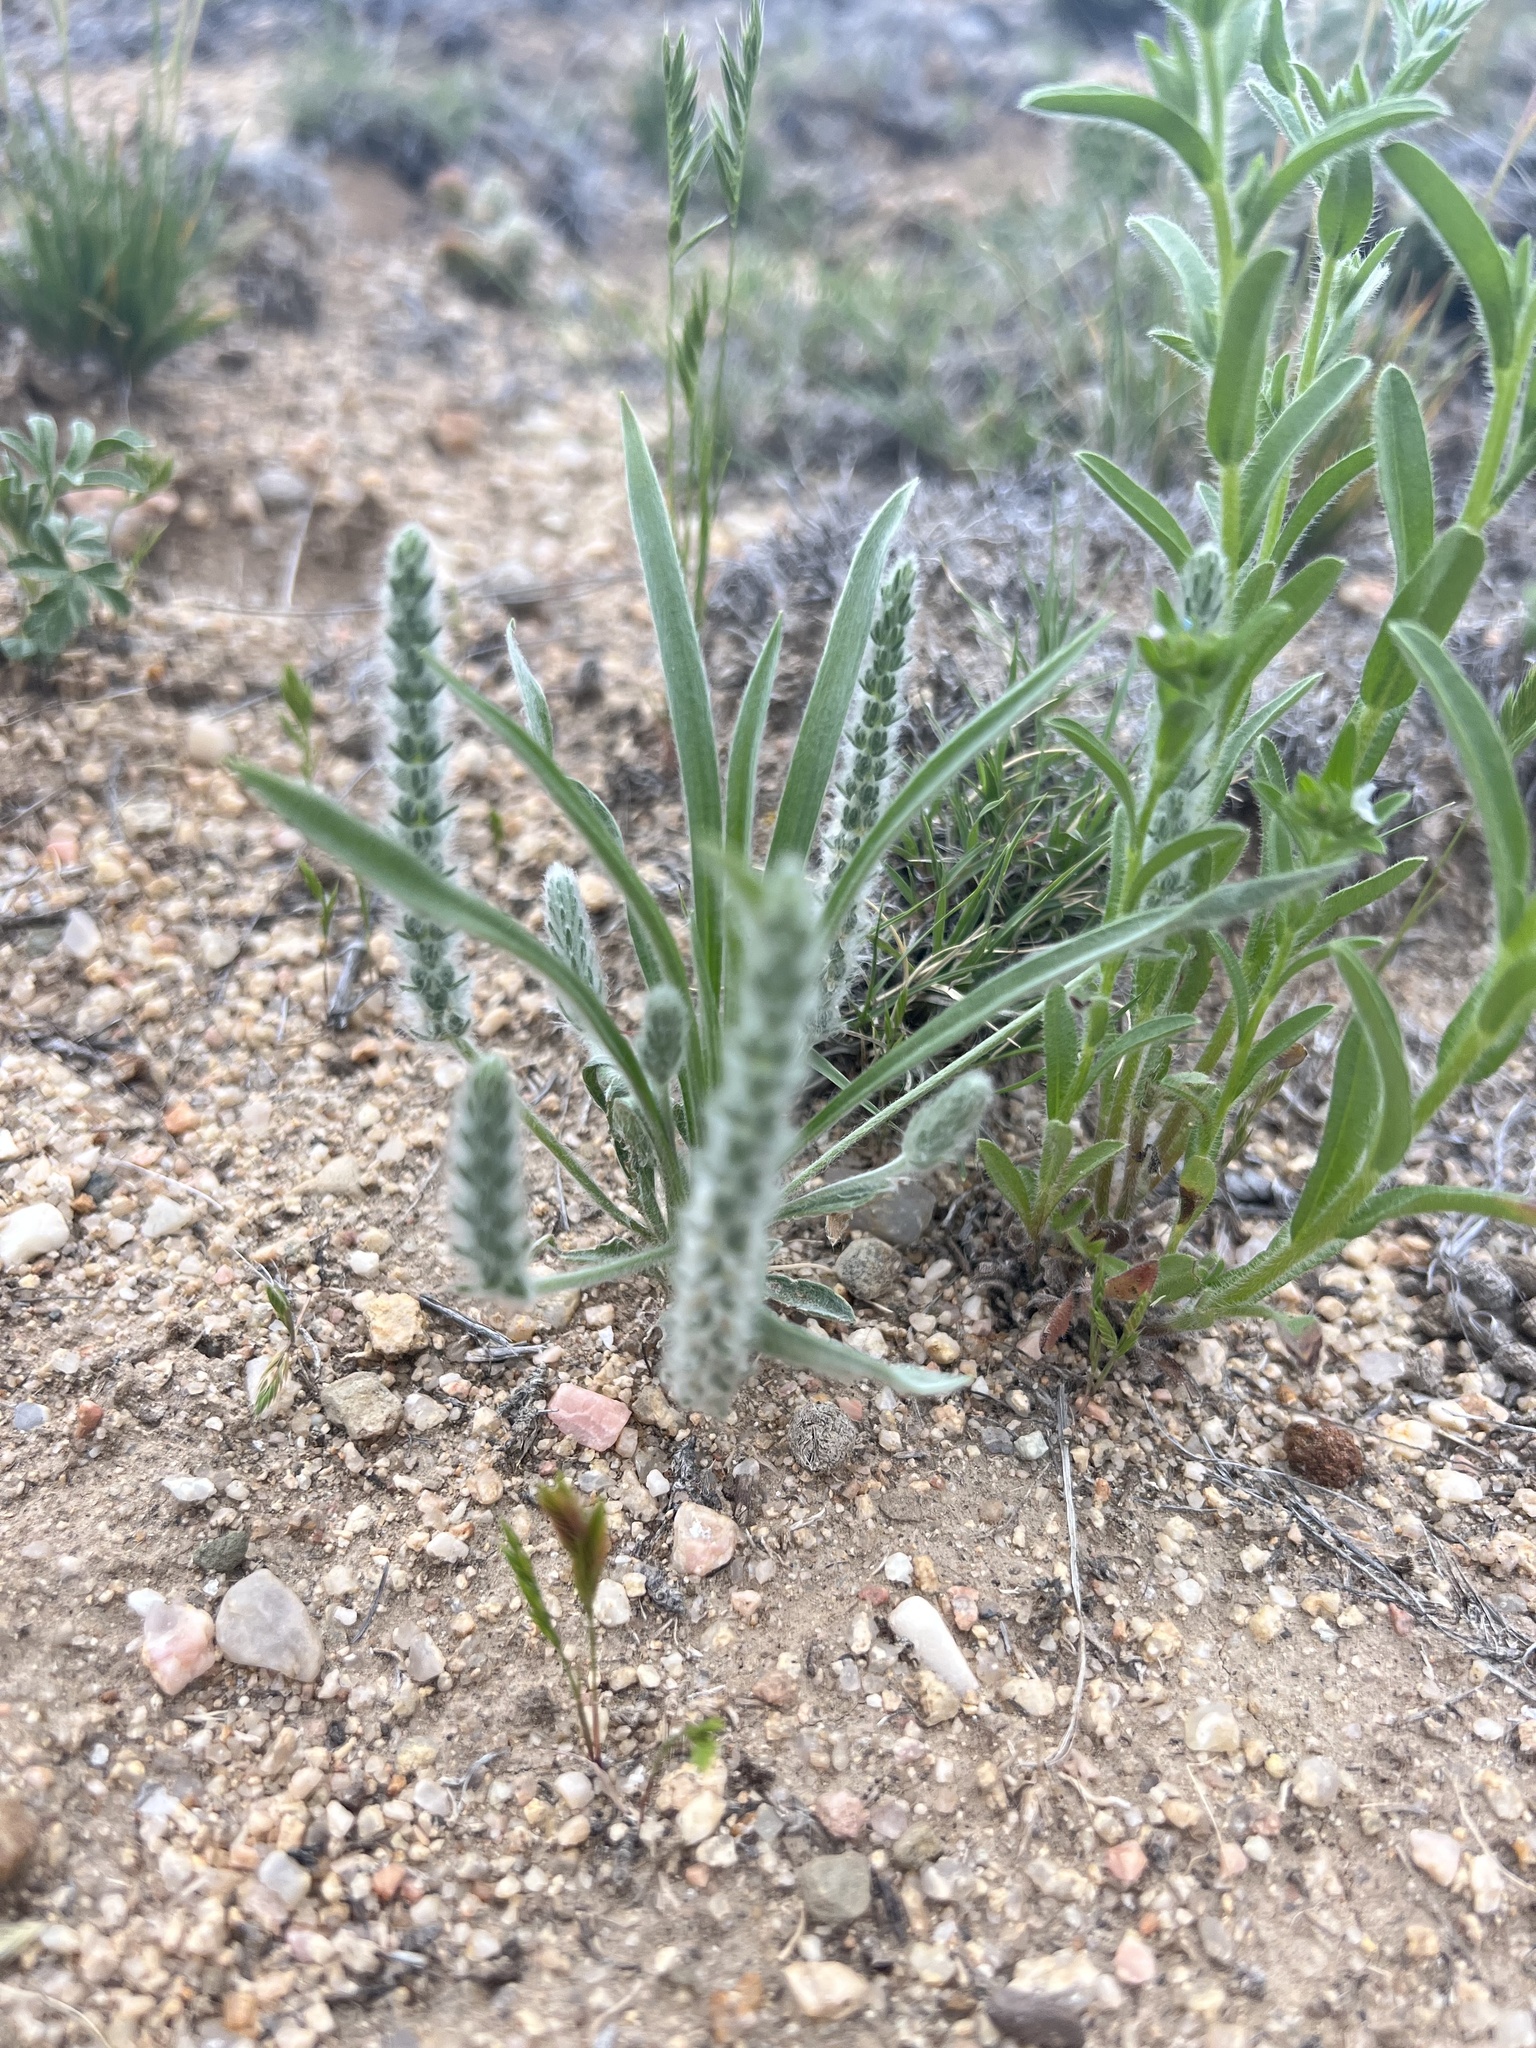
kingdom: Plantae
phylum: Tracheophyta
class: Magnoliopsida
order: Lamiales
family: Plantaginaceae
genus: Plantago
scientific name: Plantago patagonica
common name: Patagonia indian-wheat
